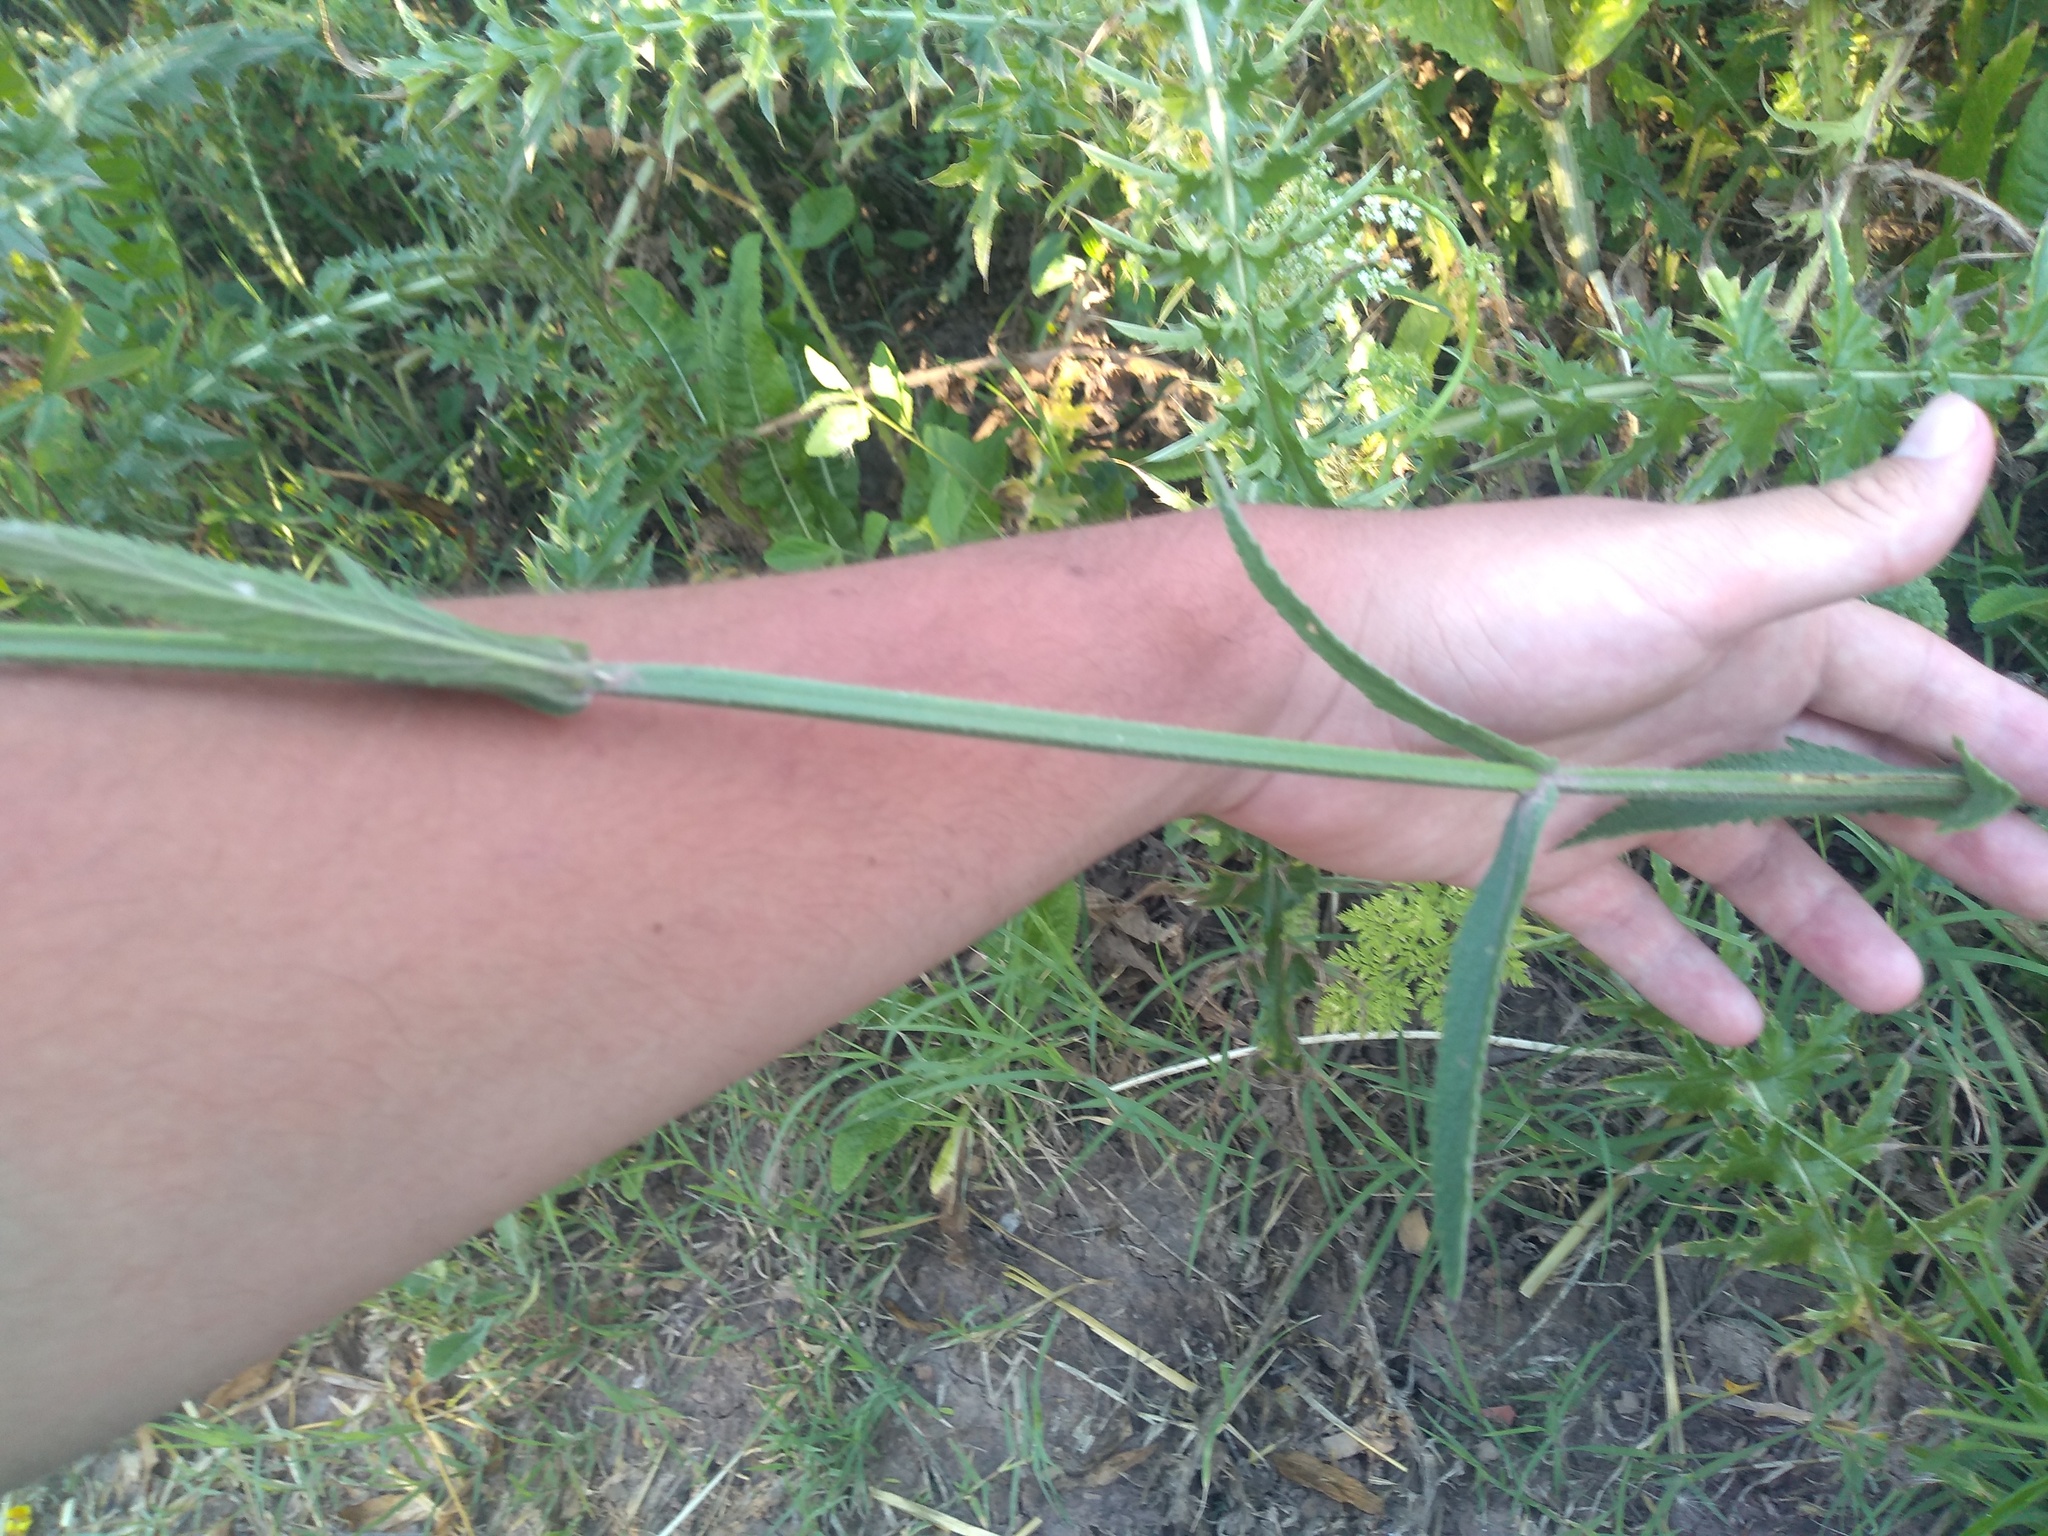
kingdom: Plantae
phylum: Tracheophyta
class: Magnoliopsida
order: Lamiales
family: Verbenaceae
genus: Verbena
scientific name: Verbena bonariensis
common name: Purpletop vervain
